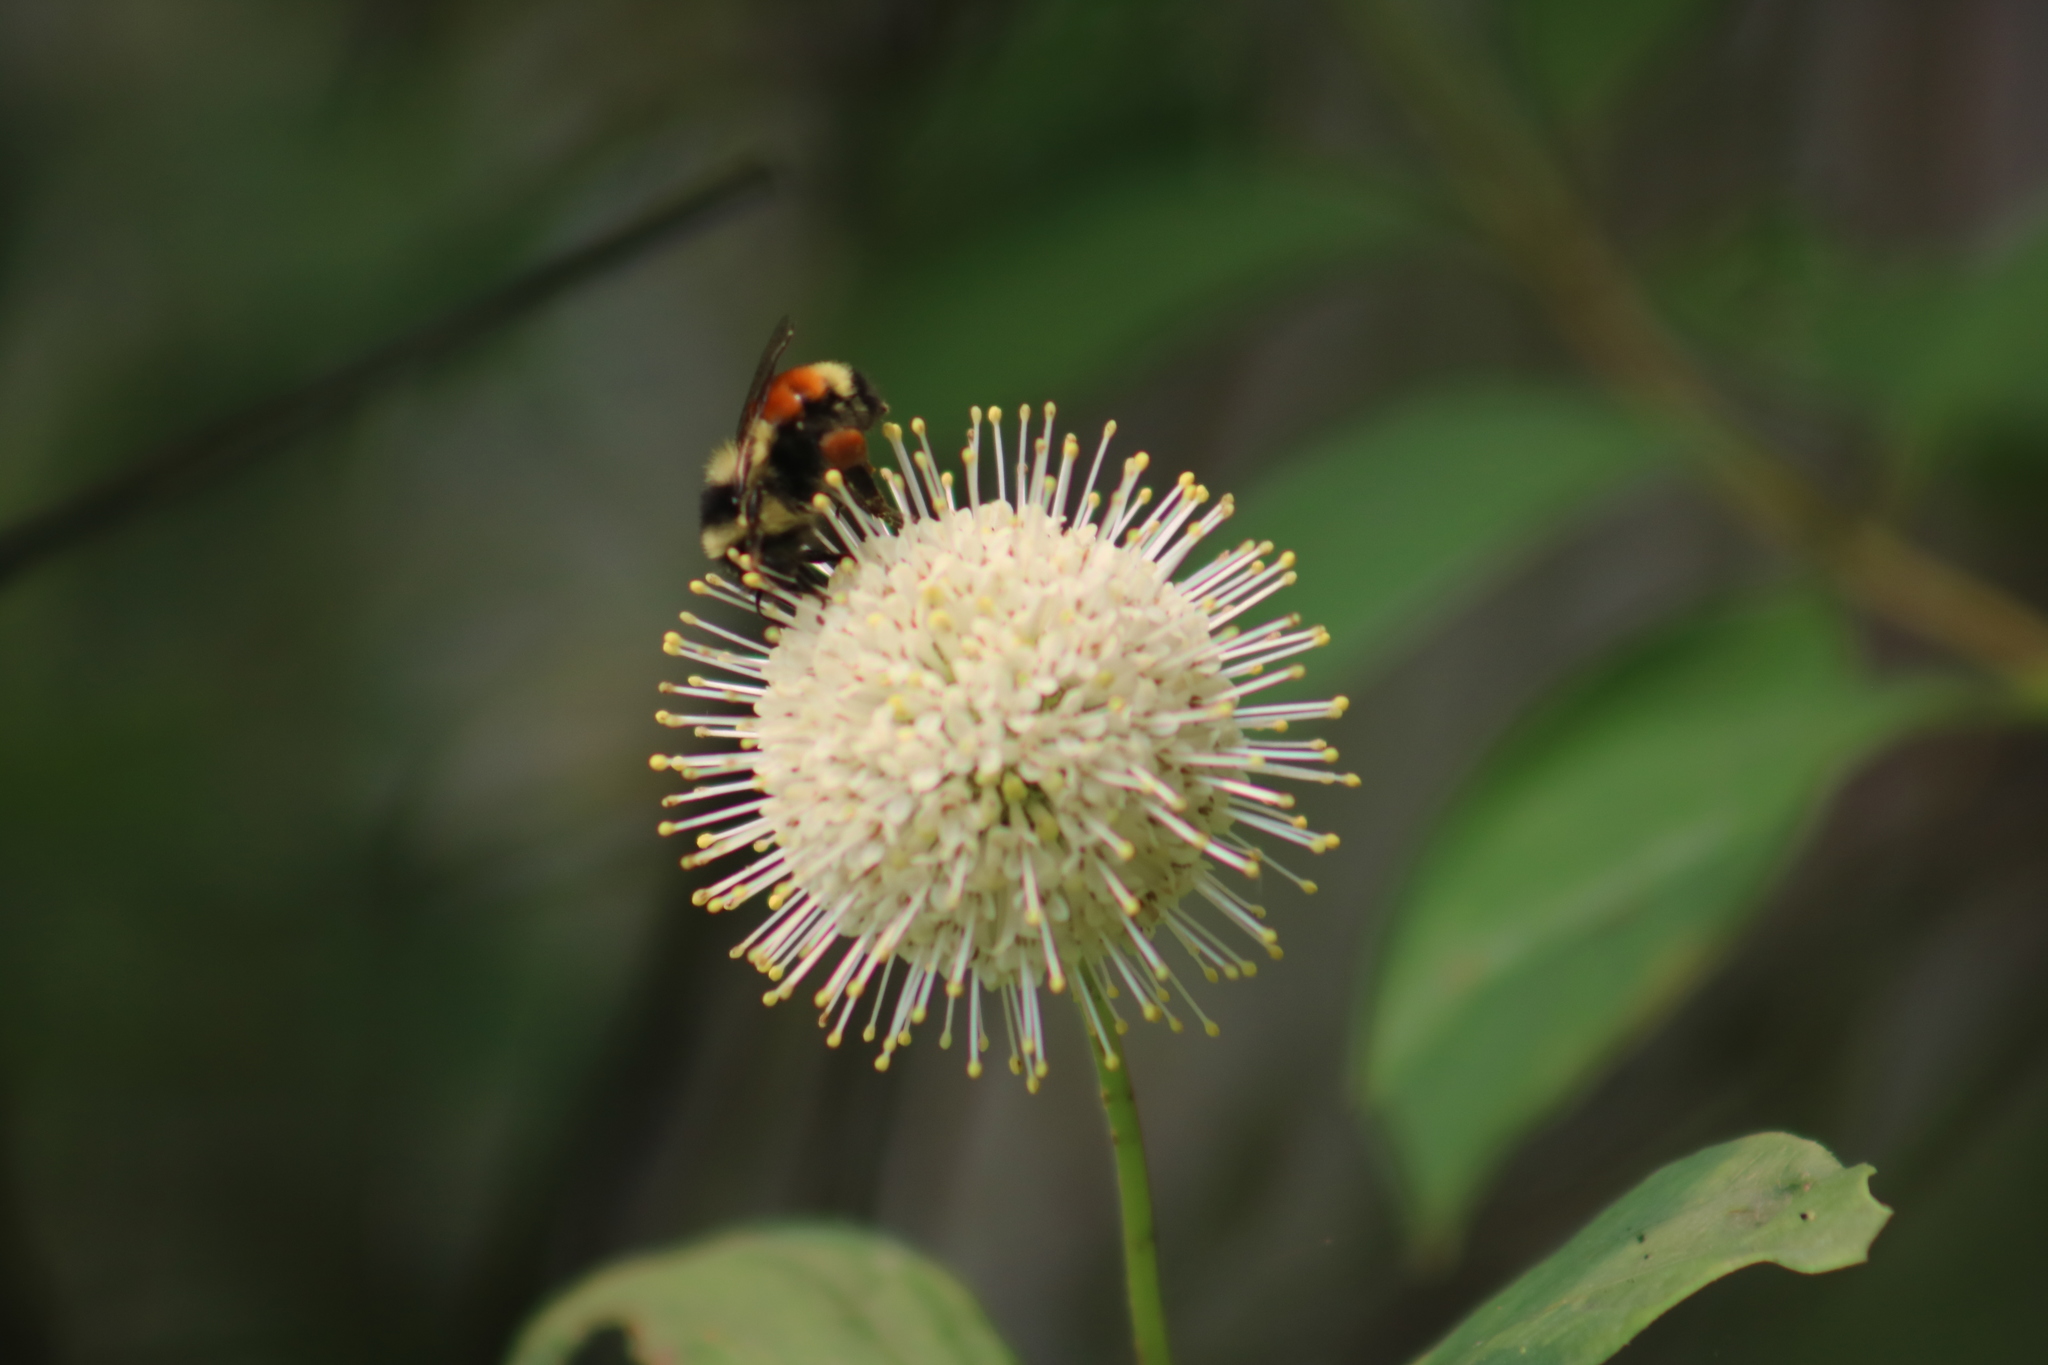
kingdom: Animalia
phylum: Arthropoda
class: Insecta
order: Hymenoptera
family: Apidae
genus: Bombus
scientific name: Bombus ternarius
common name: Tri-colored bumble bee
